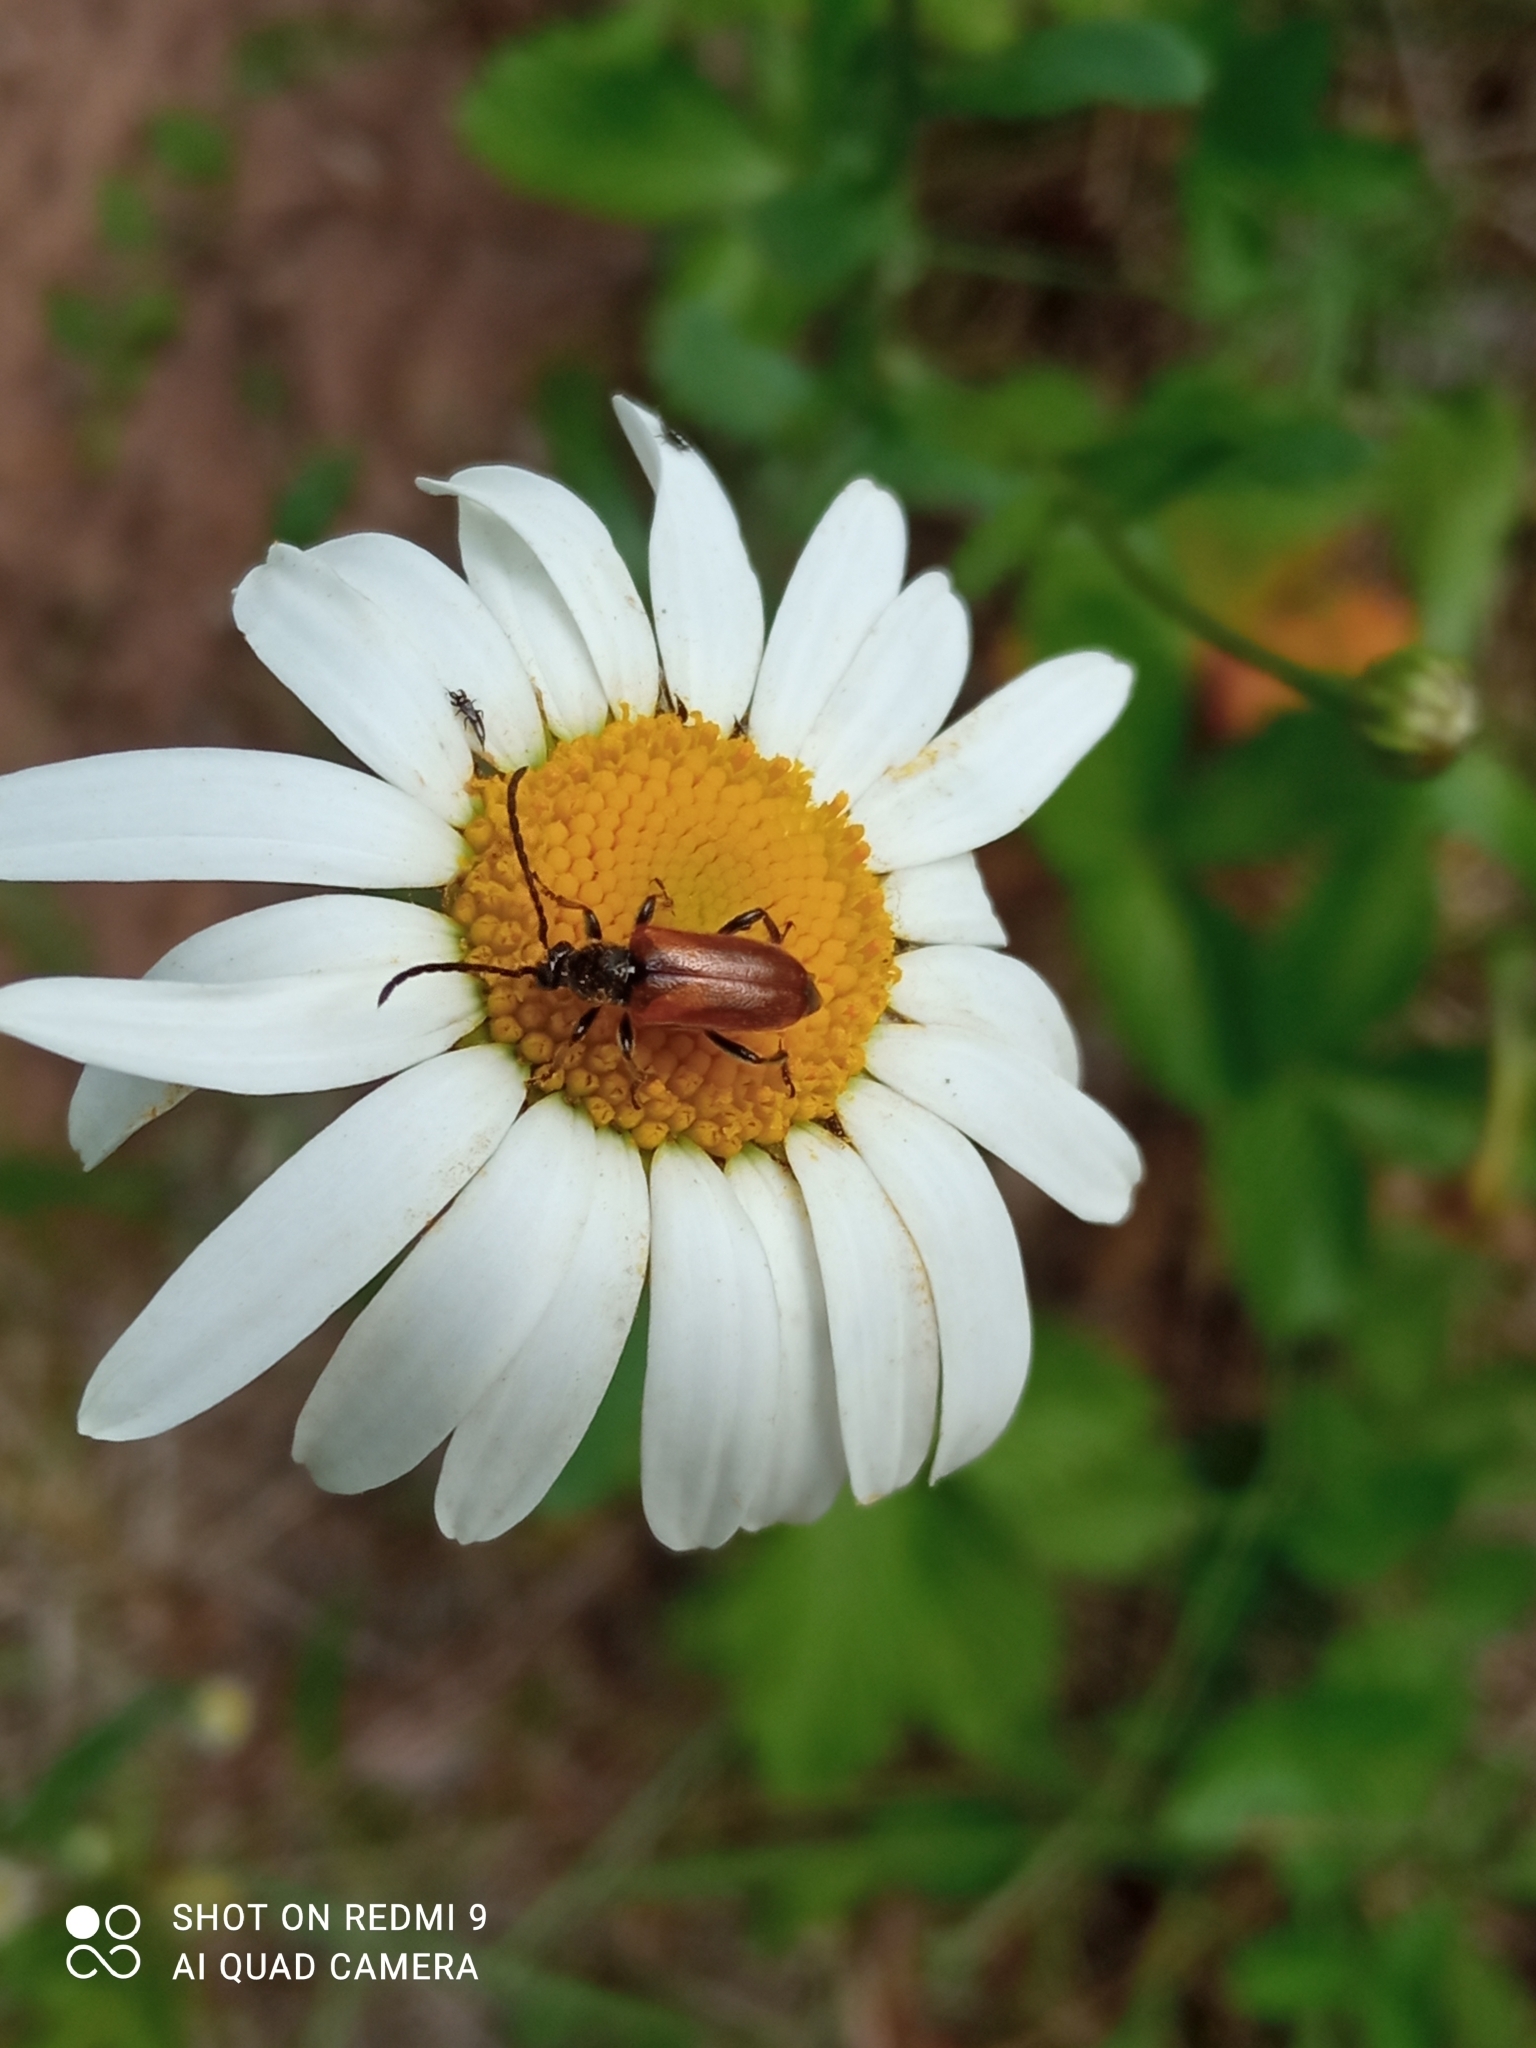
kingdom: Animalia
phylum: Arthropoda
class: Insecta
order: Coleoptera
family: Cerambycidae
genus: Pseudovadonia
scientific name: Pseudovadonia livida
